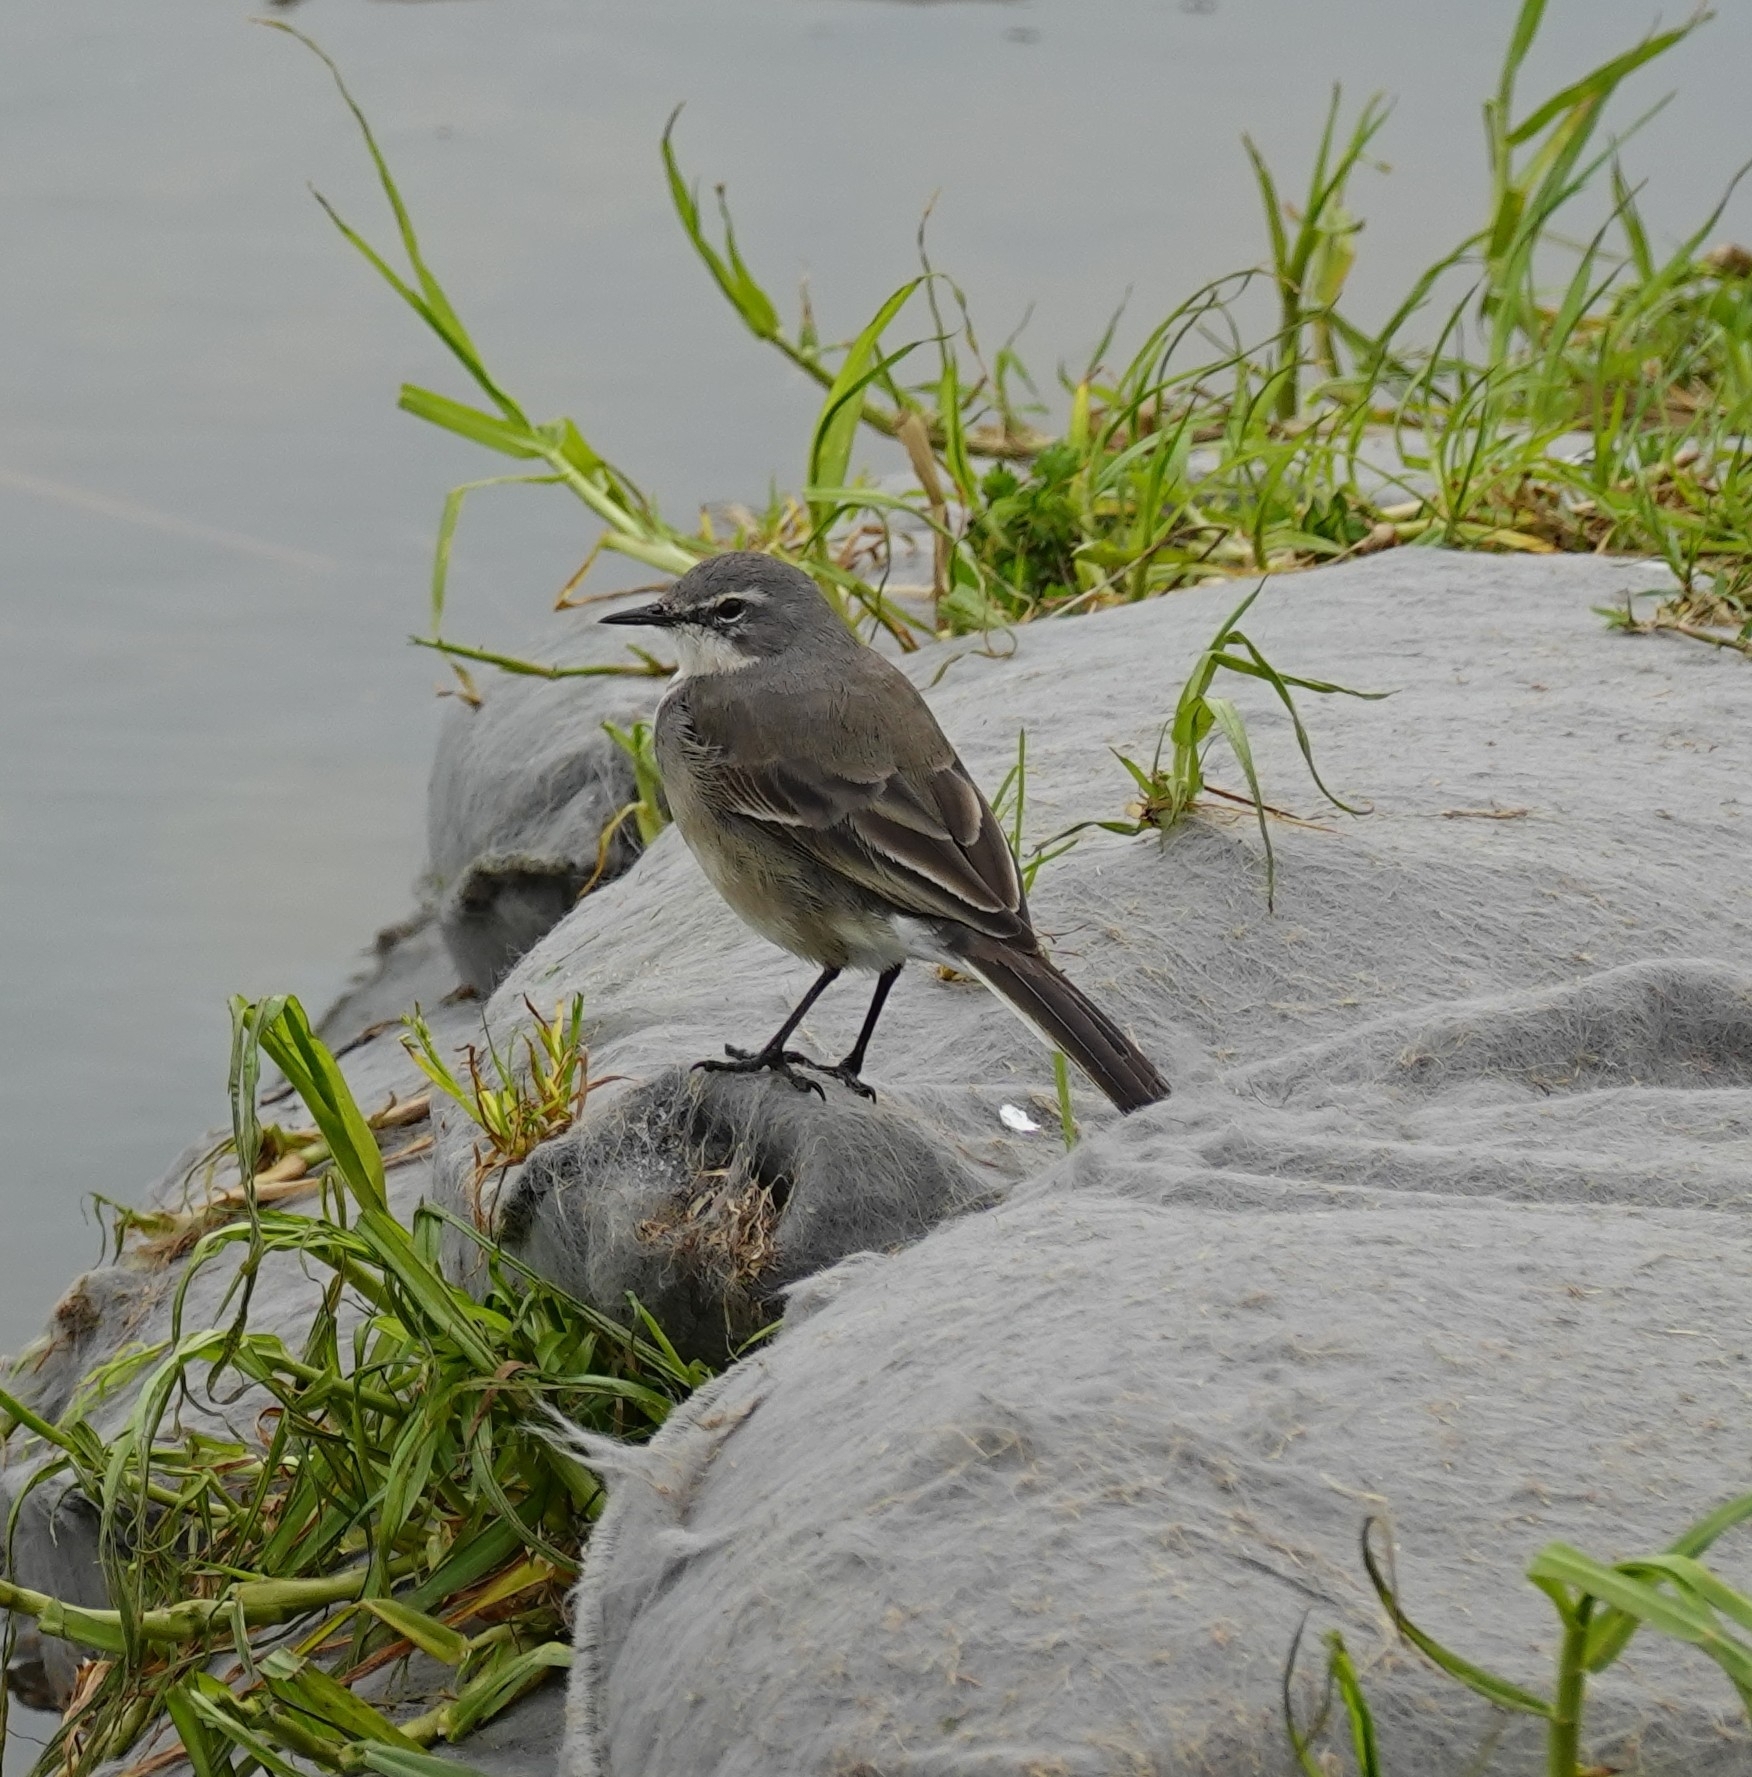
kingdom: Animalia
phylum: Chordata
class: Aves
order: Passeriformes
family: Motacillidae
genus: Motacilla
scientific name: Motacilla capensis
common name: Cape wagtail
